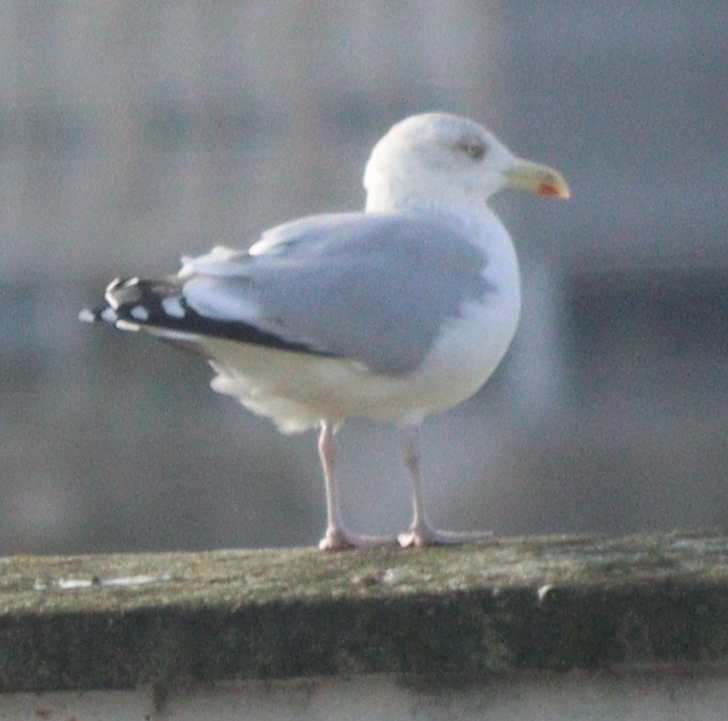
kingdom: Animalia
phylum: Chordata
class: Aves
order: Charadriiformes
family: Laridae
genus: Larus
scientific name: Larus argentatus
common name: Herring gull
